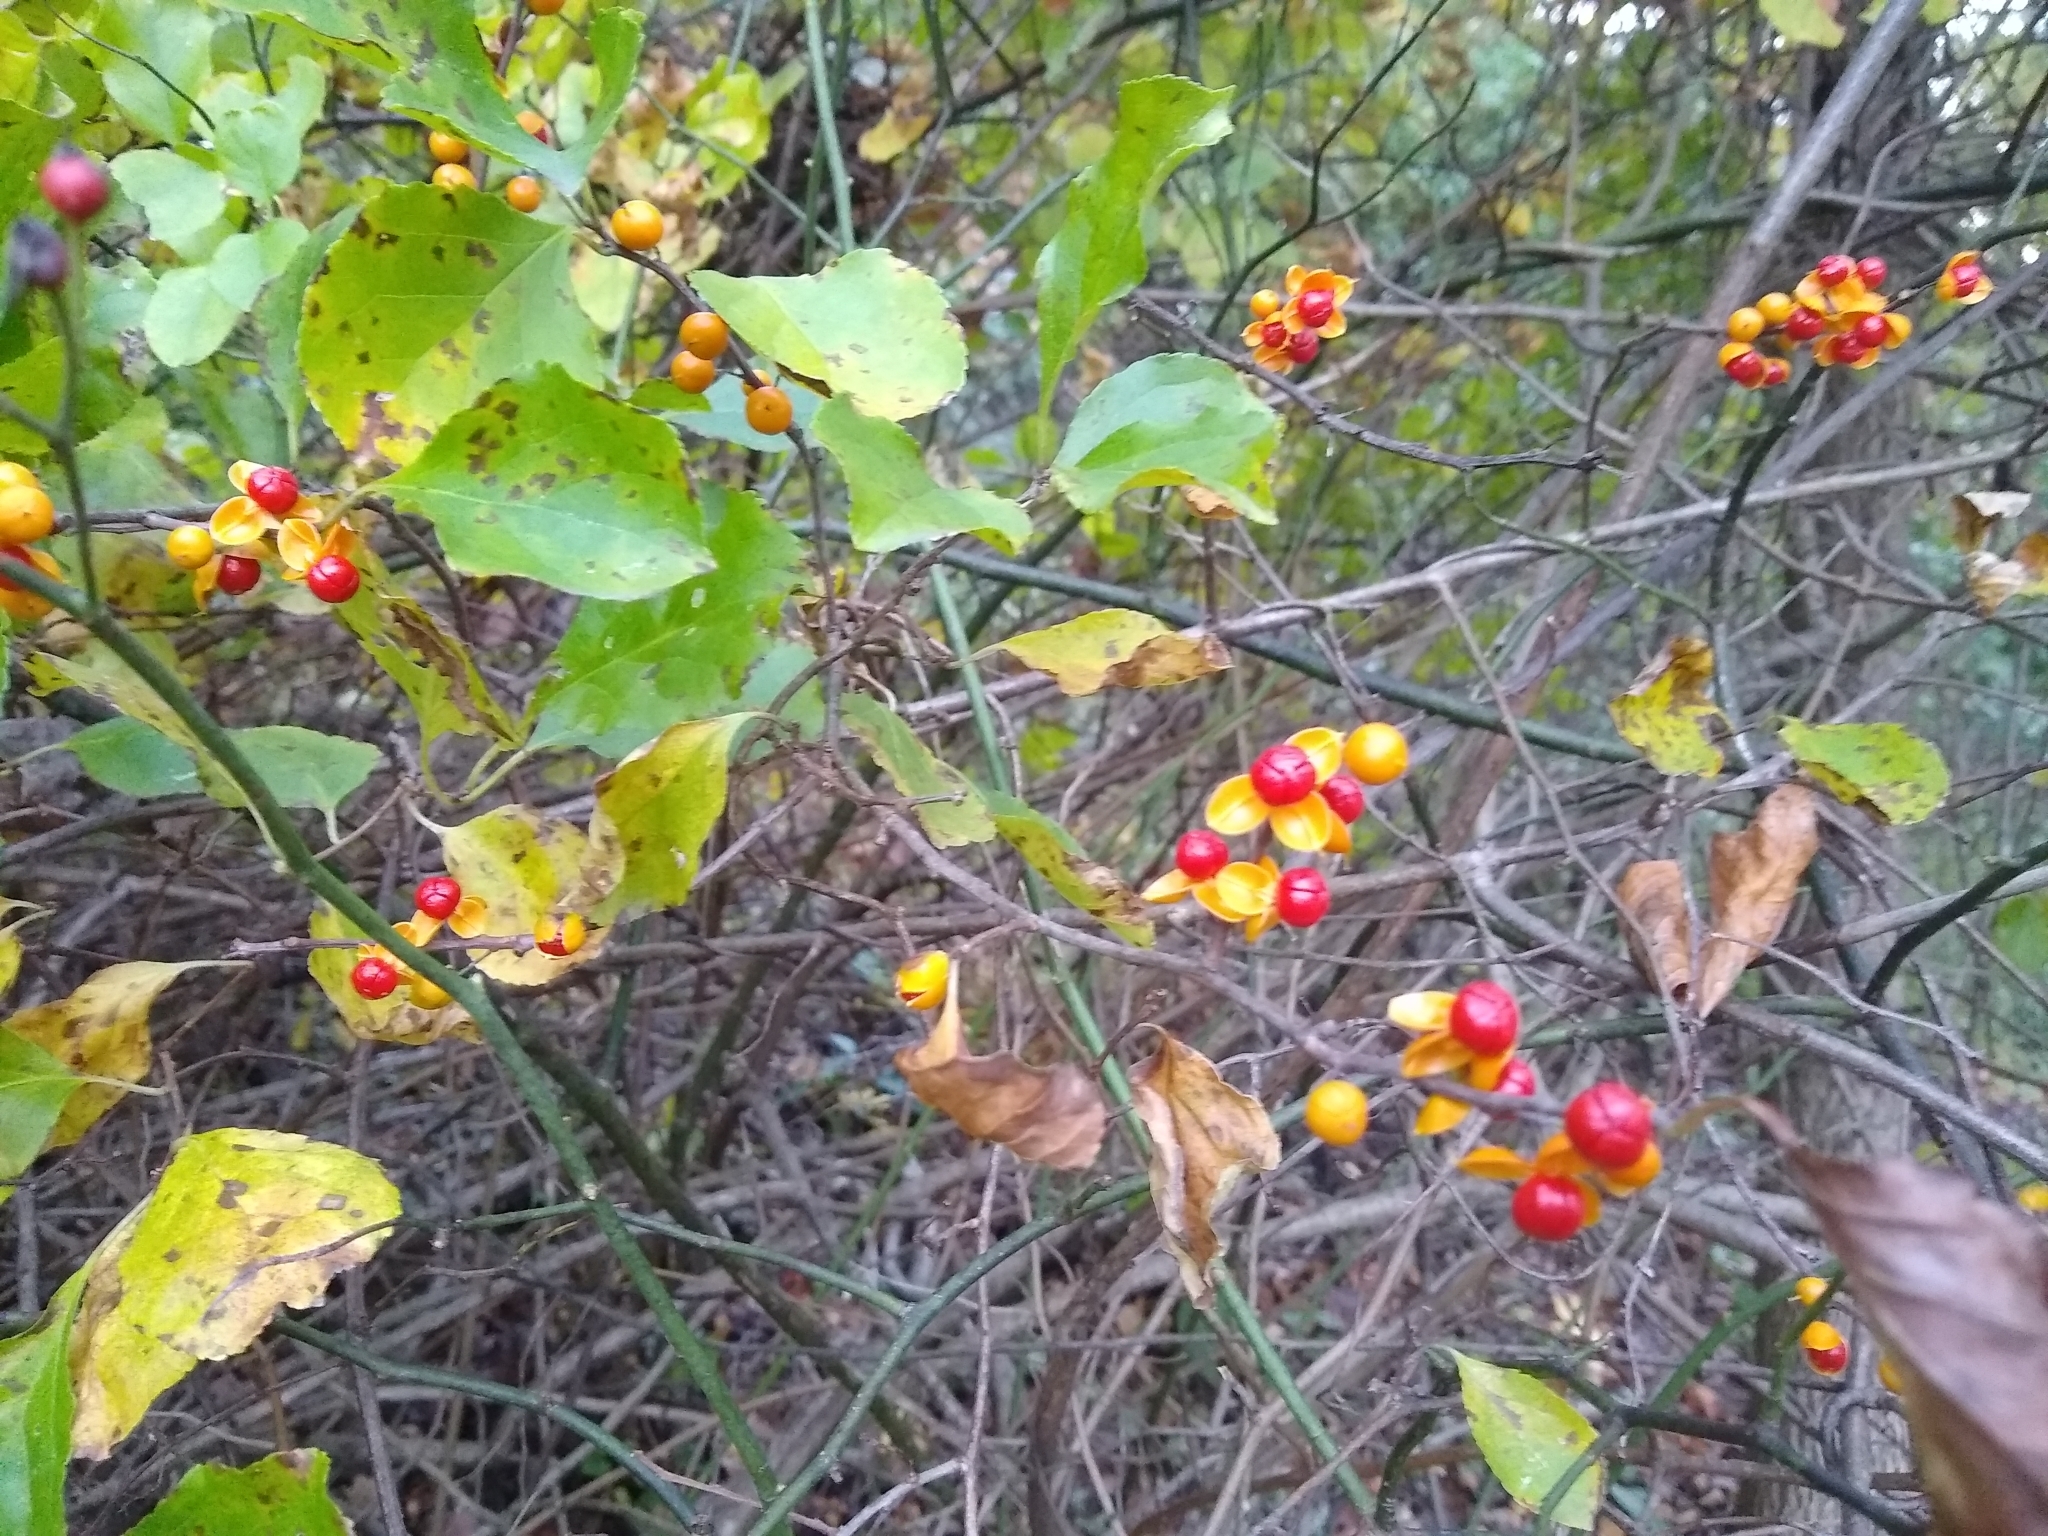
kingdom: Plantae
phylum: Tracheophyta
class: Magnoliopsida
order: Celastrales
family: Celastraceae
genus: Celastrus
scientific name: Celastrus orbiculatus
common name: Oriental bittersweet
